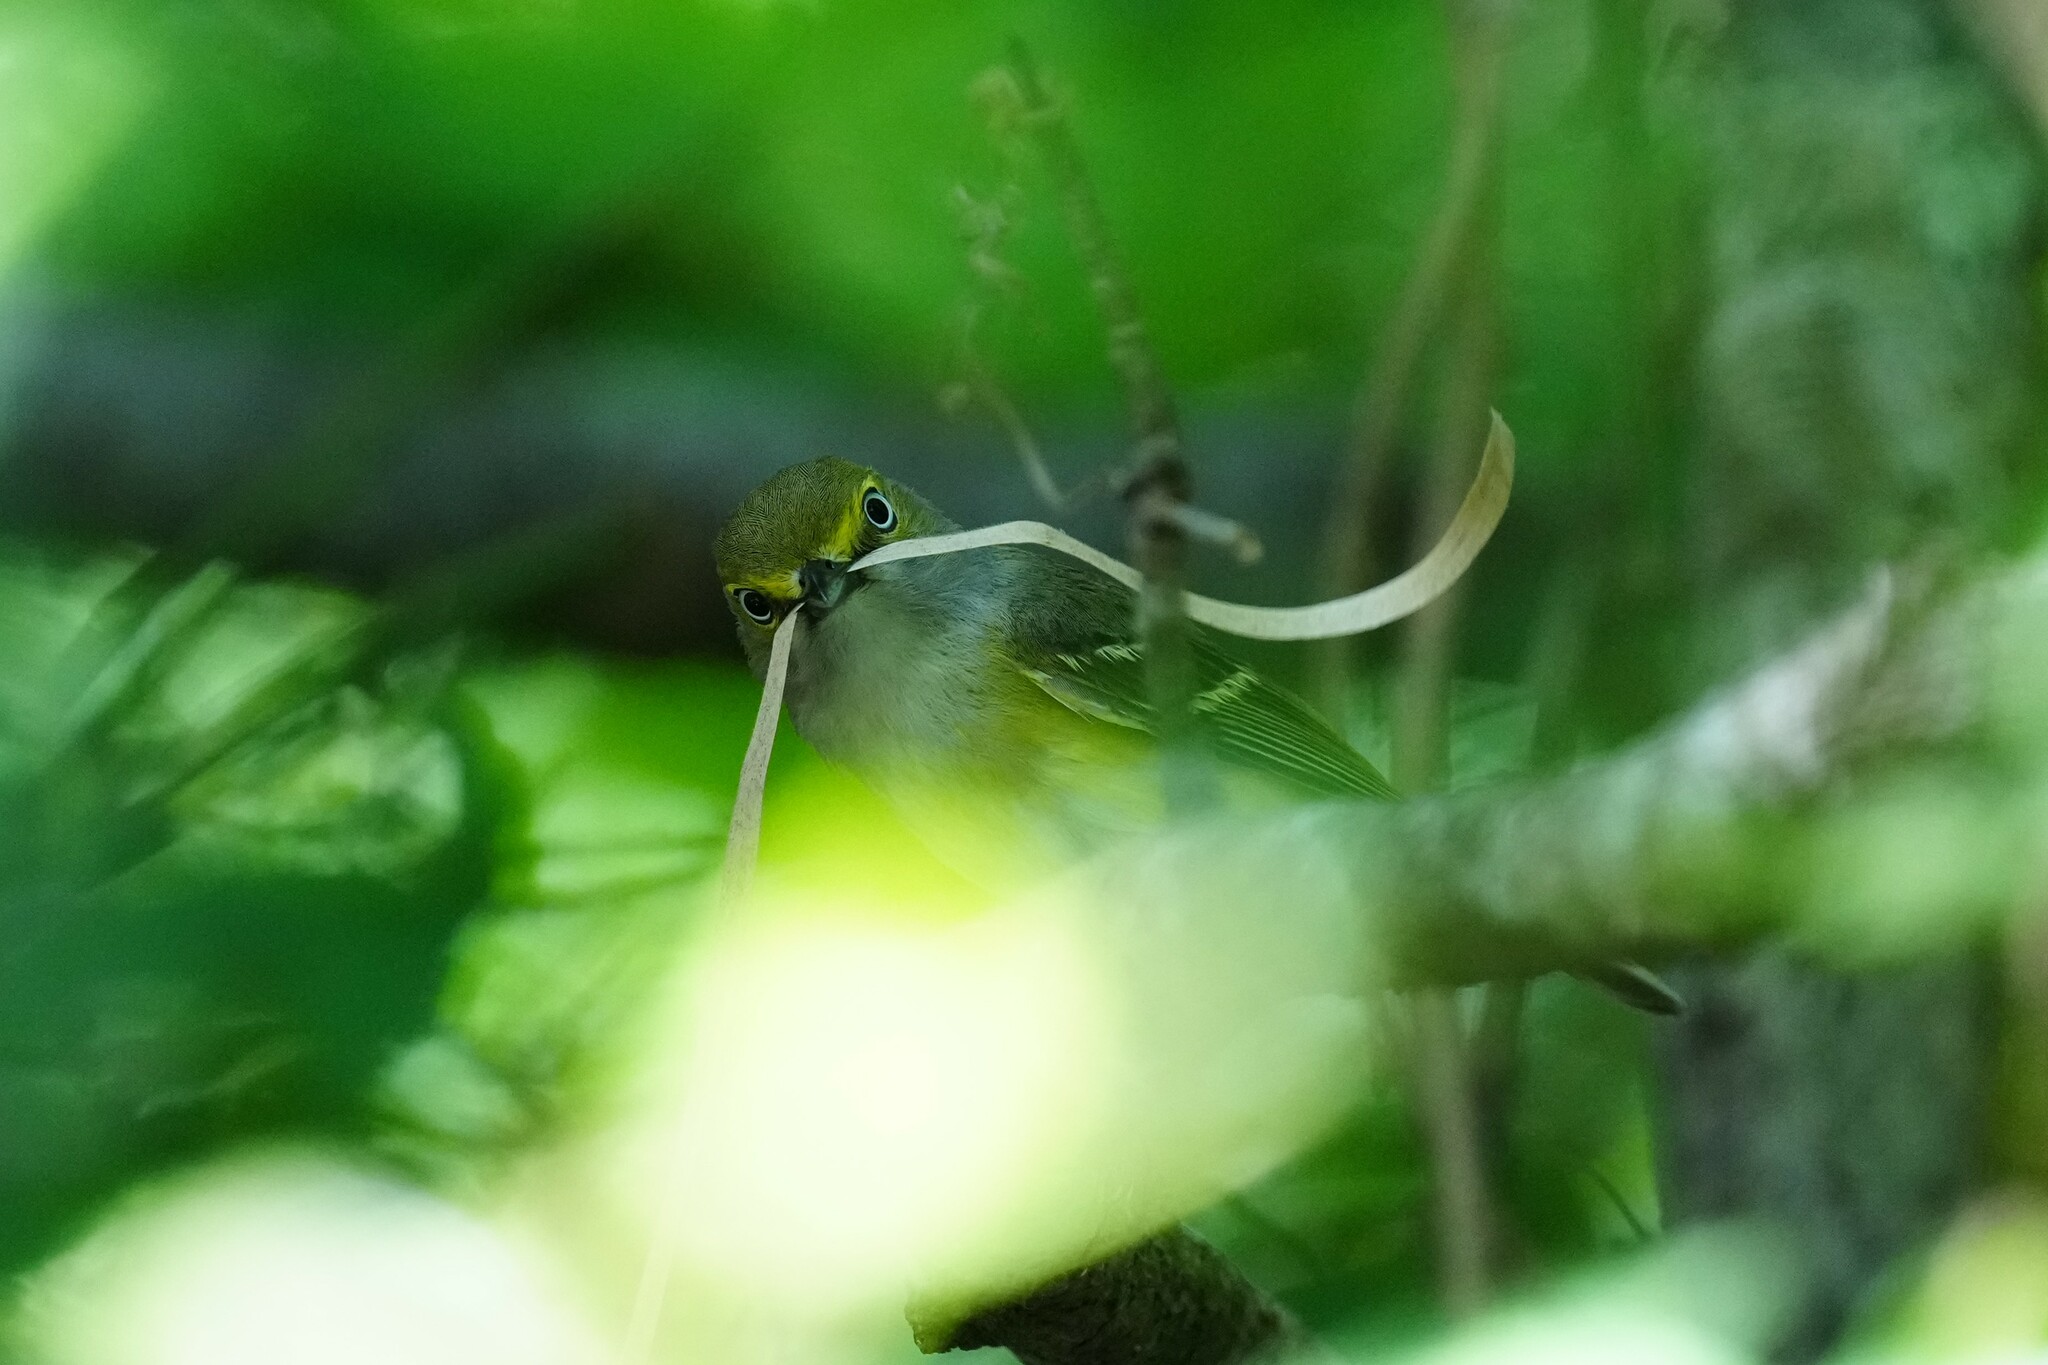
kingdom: Animalia
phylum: Chordata
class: Aves
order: Passeriformes
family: Vireonidae
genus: Vireo
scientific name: Vireo griseus
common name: White-eyed vireo
